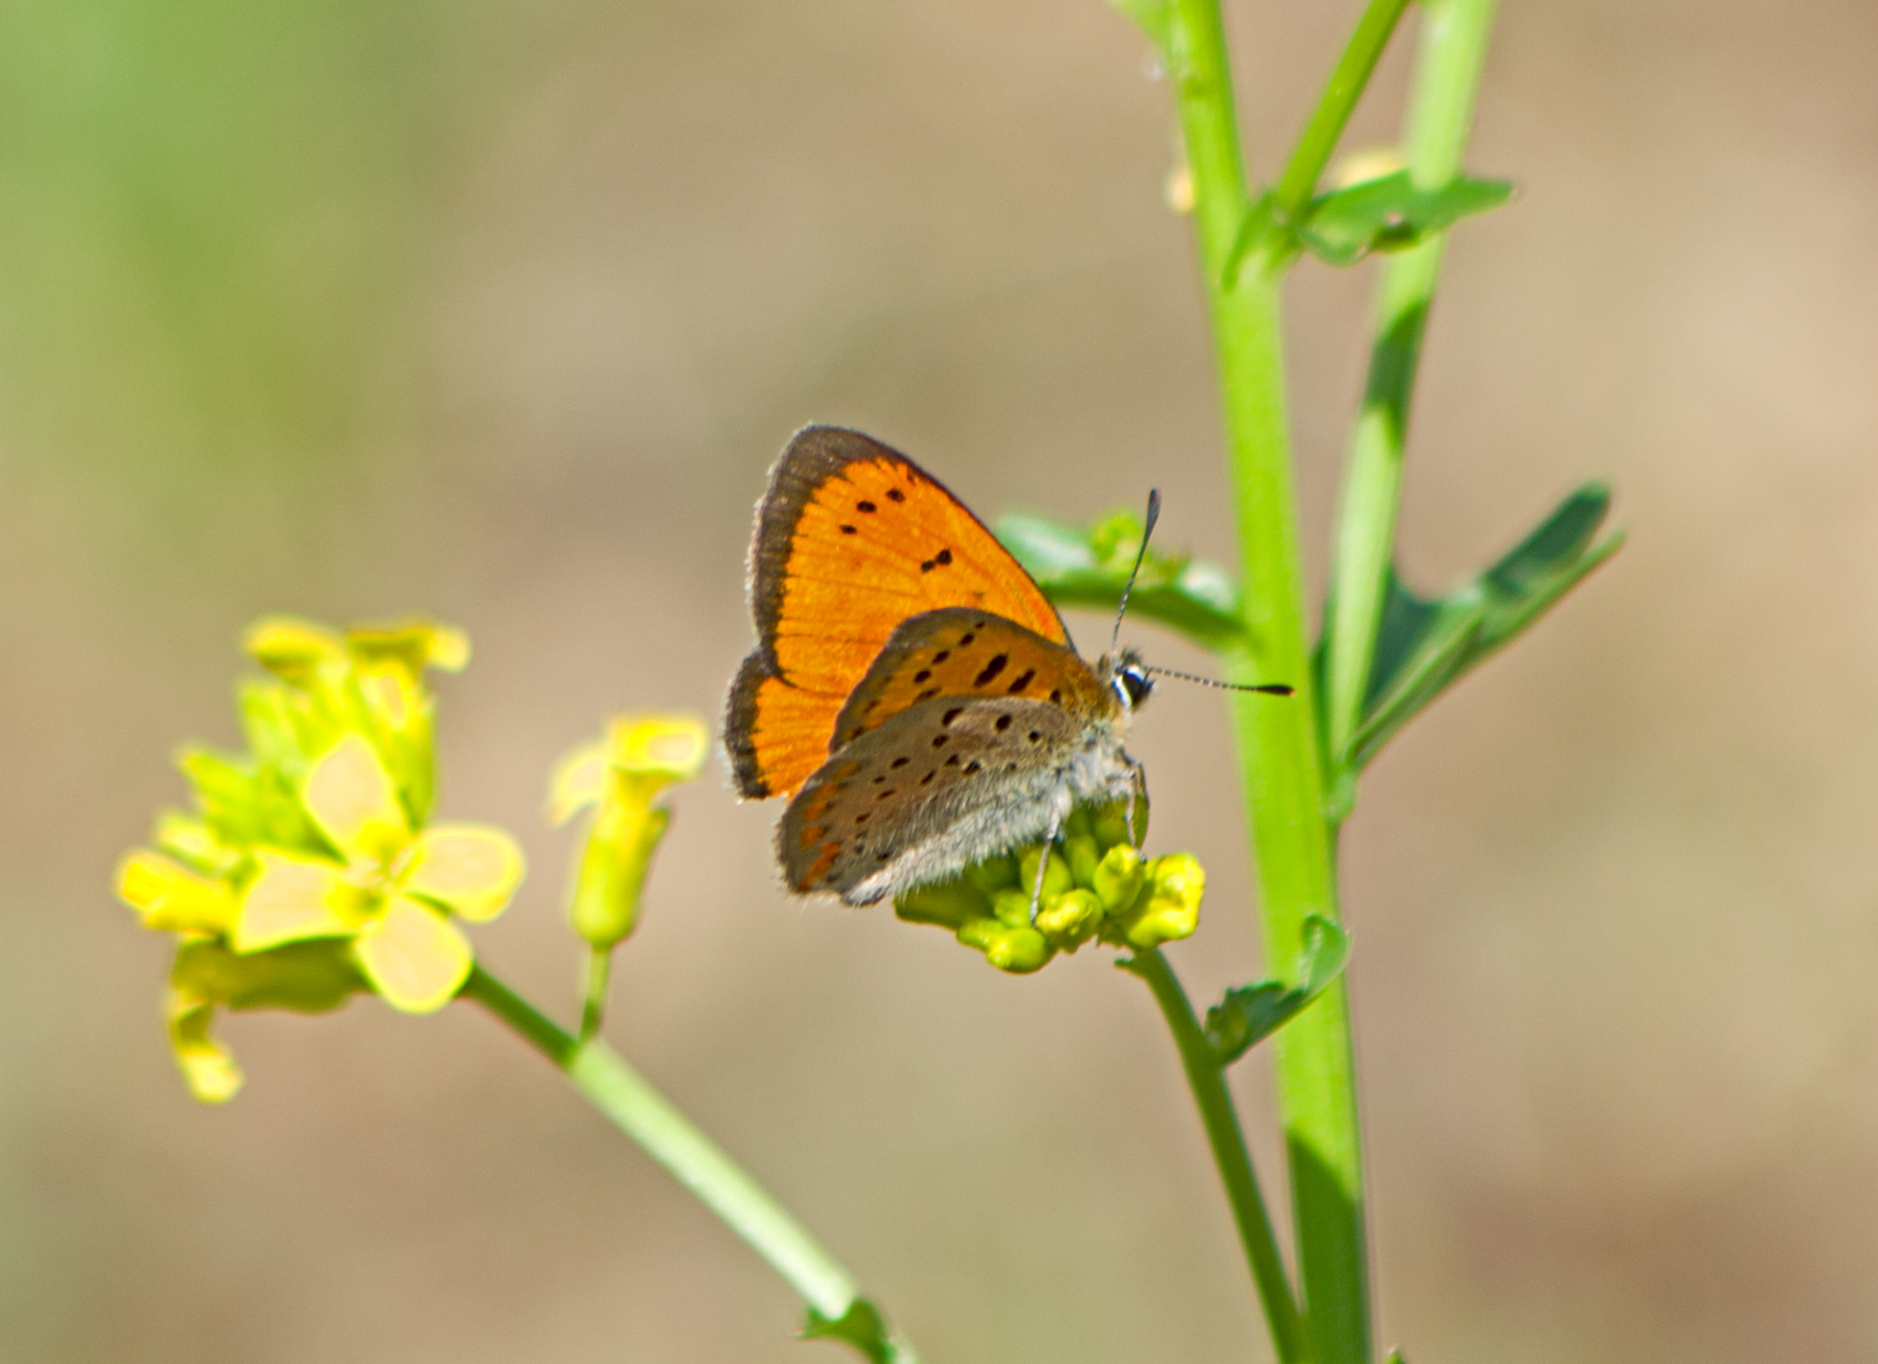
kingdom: Animalia
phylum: Arthropoda
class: Insecta
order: Lepidoptera
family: Lycaenidae
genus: Polyommatus
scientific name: Polyommatus ottomanus
